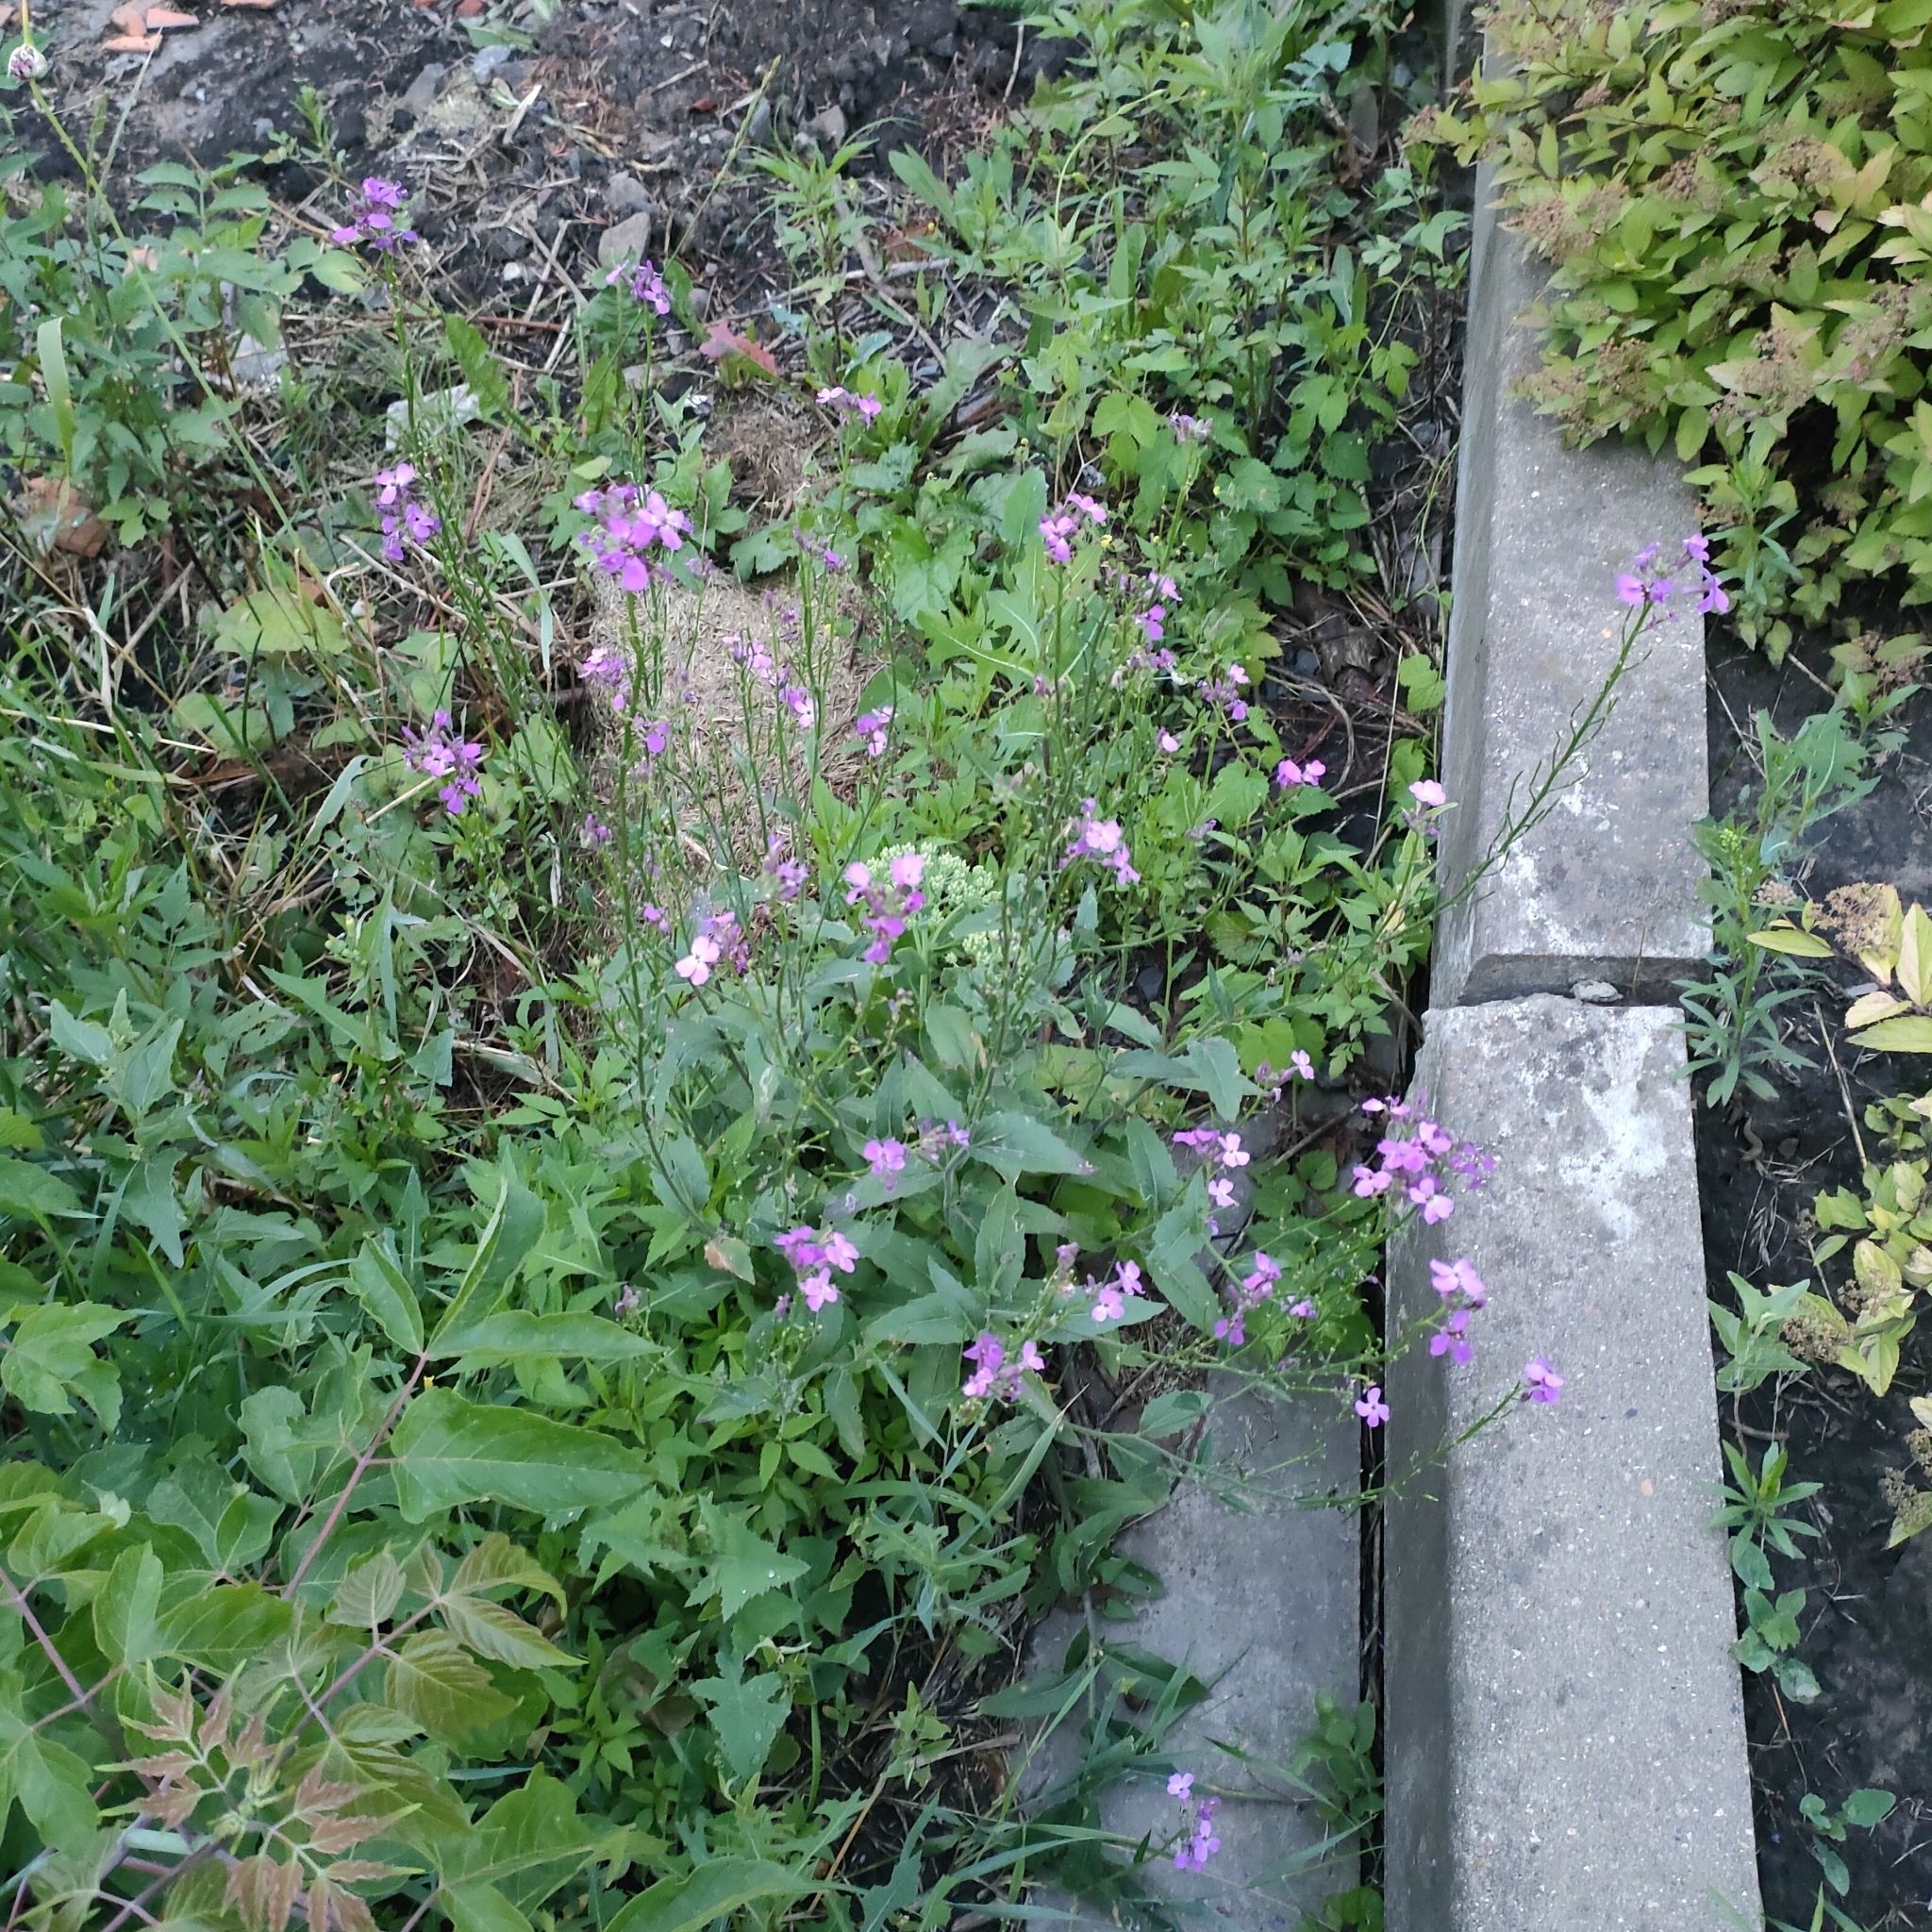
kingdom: Plantae
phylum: Tracheophyta
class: Magnoliopsida
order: Brassicales
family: Brassicaceae
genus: Hesperis
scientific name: Hesperis matronalis
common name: Dame's-violet
